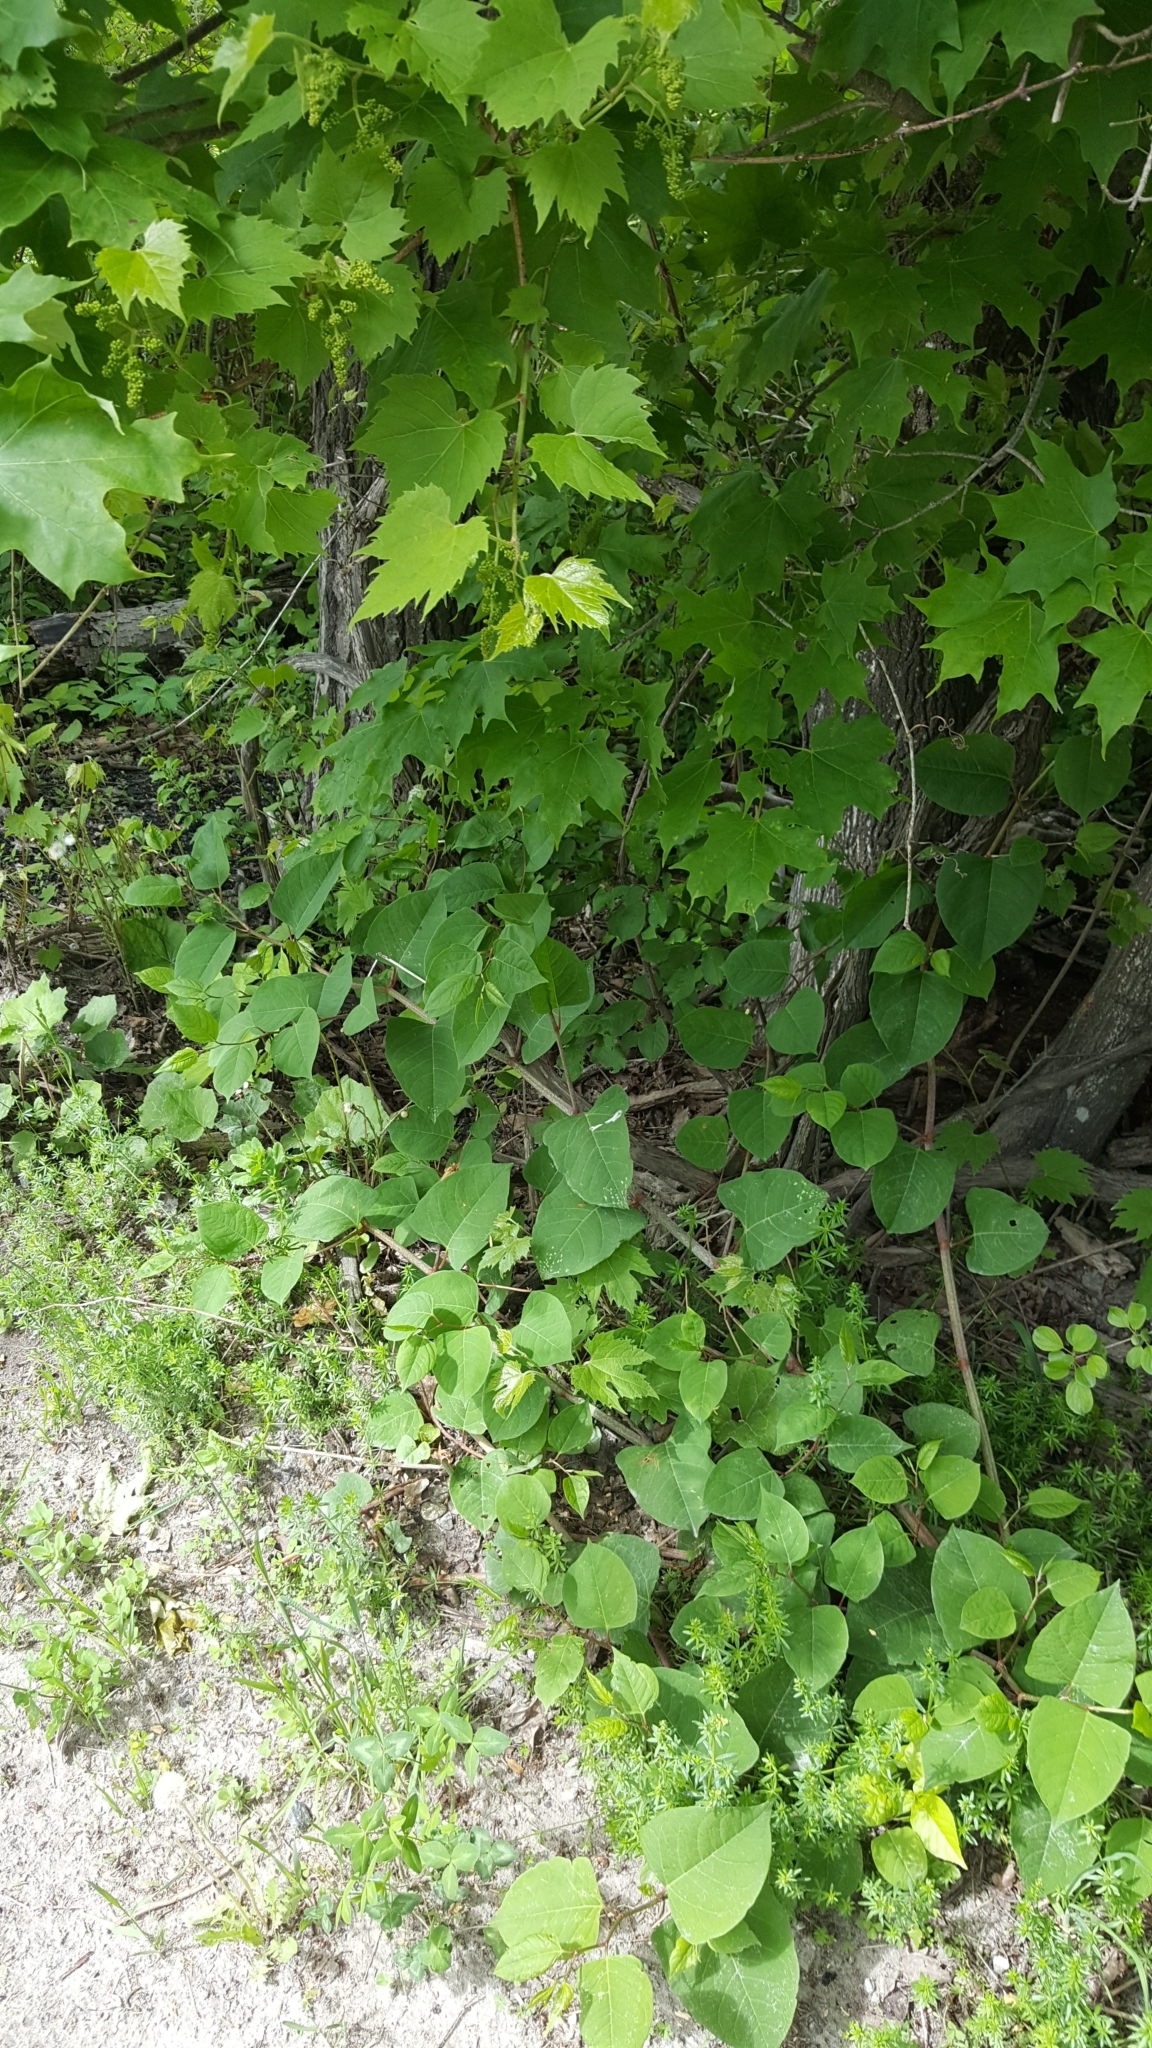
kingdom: Plantae
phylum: Tracheophyta
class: Magnoliopsida
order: Caryophyllales
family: Polygonaceae
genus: Reynoutria
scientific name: Reynoutria japonica
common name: Japanese knotweed
